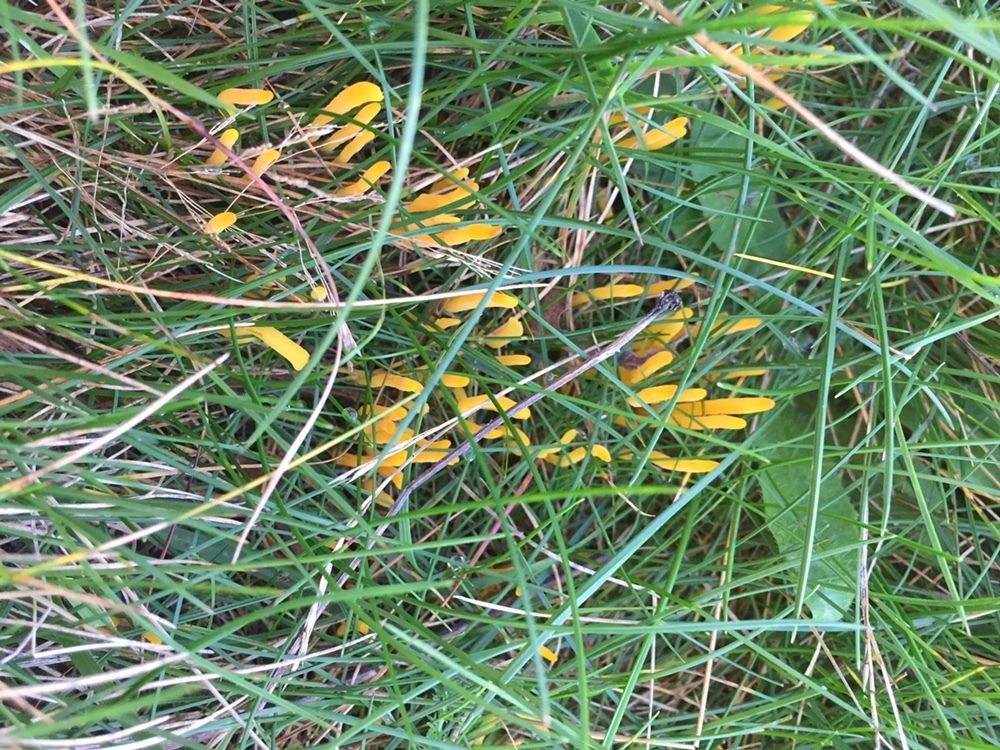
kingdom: Fungi
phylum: Basidiomycota
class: Agaricomycetes
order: Agaricales
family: Clavariaceae
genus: Clavulinopsis
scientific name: Clavulinopsis helvola
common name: Yellow club
